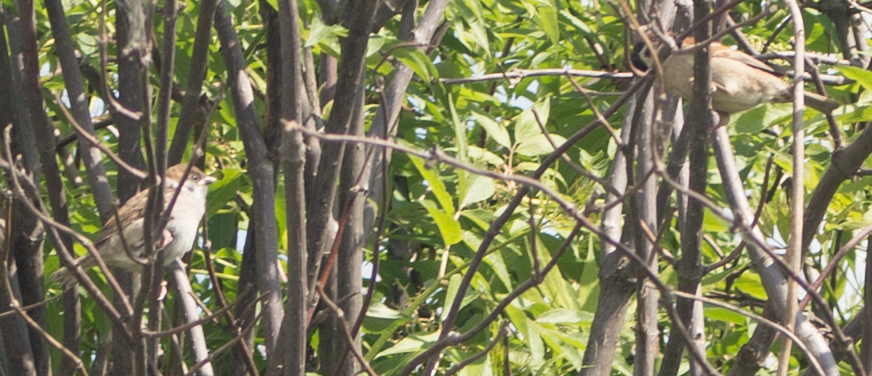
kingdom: Animalia
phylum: Chordata
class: Aves
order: Passeriformes
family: Passeridae
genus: Passer
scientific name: Passer montanus
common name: Eurasian tree sparrow
